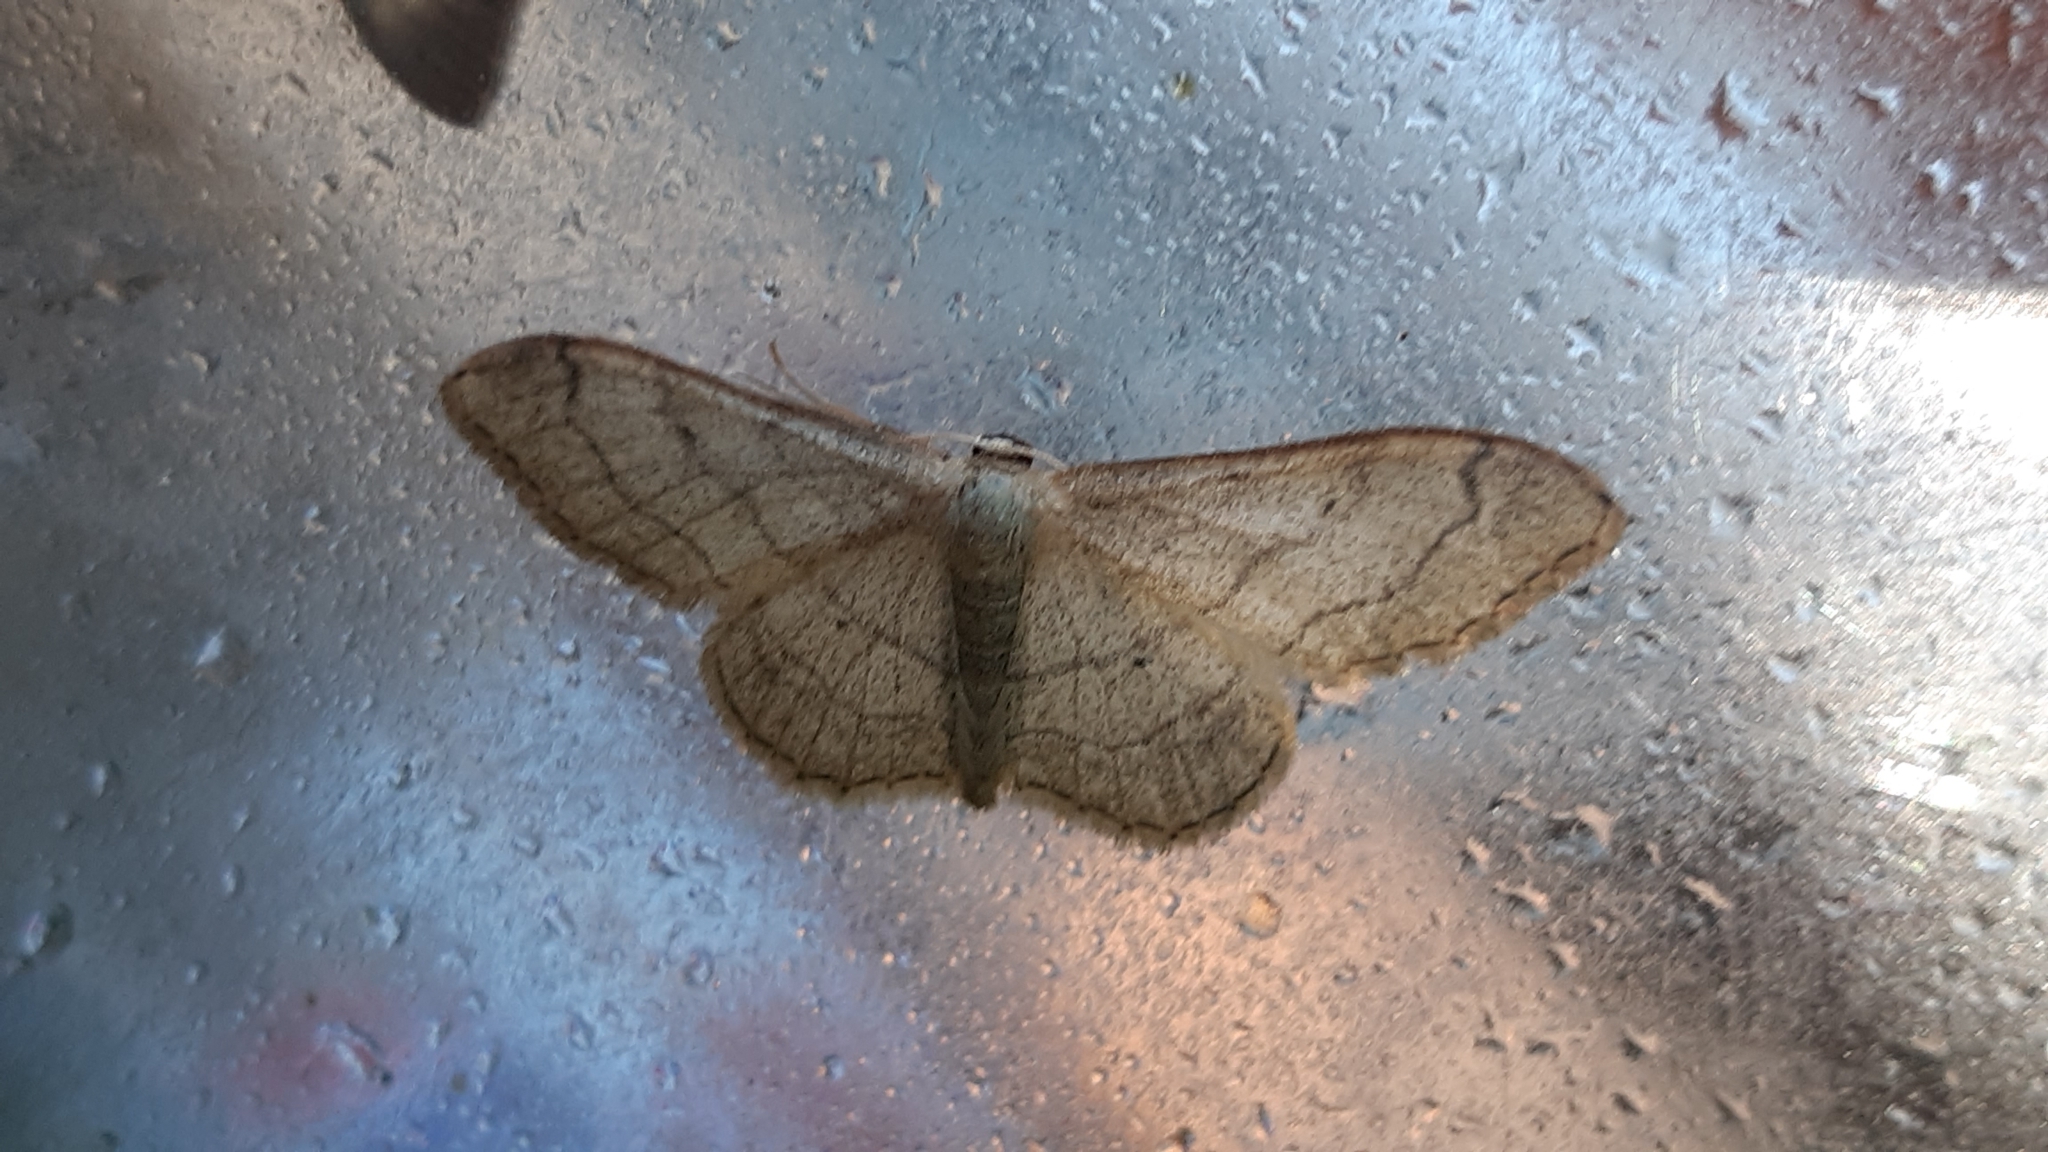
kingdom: Animalia
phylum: Arthropoda
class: Insecta
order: Lepidoptera
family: Geometridae
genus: Idaea
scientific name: Idaea aversata
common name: Riband wave
